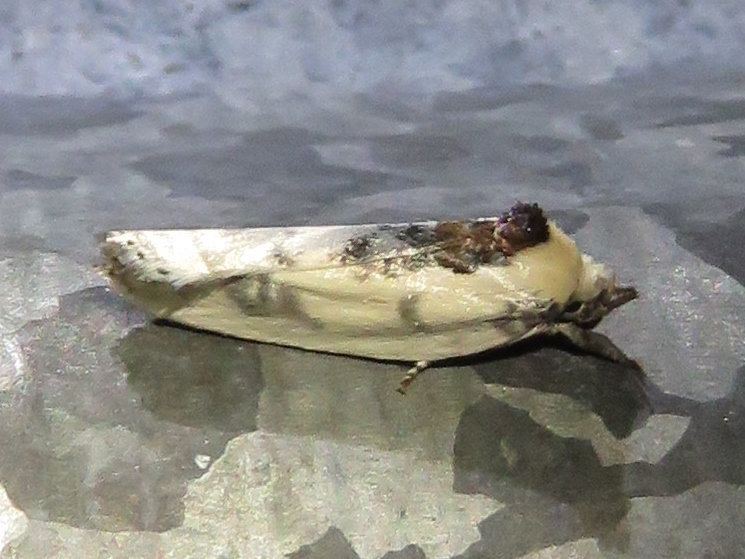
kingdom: Animalia
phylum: Arthropoda
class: Insecta
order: Lepidoptera
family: Depressariidae
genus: Antaeotricha
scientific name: Antaeotricha schlaegeri
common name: Schlaeger's fruitworm moth
